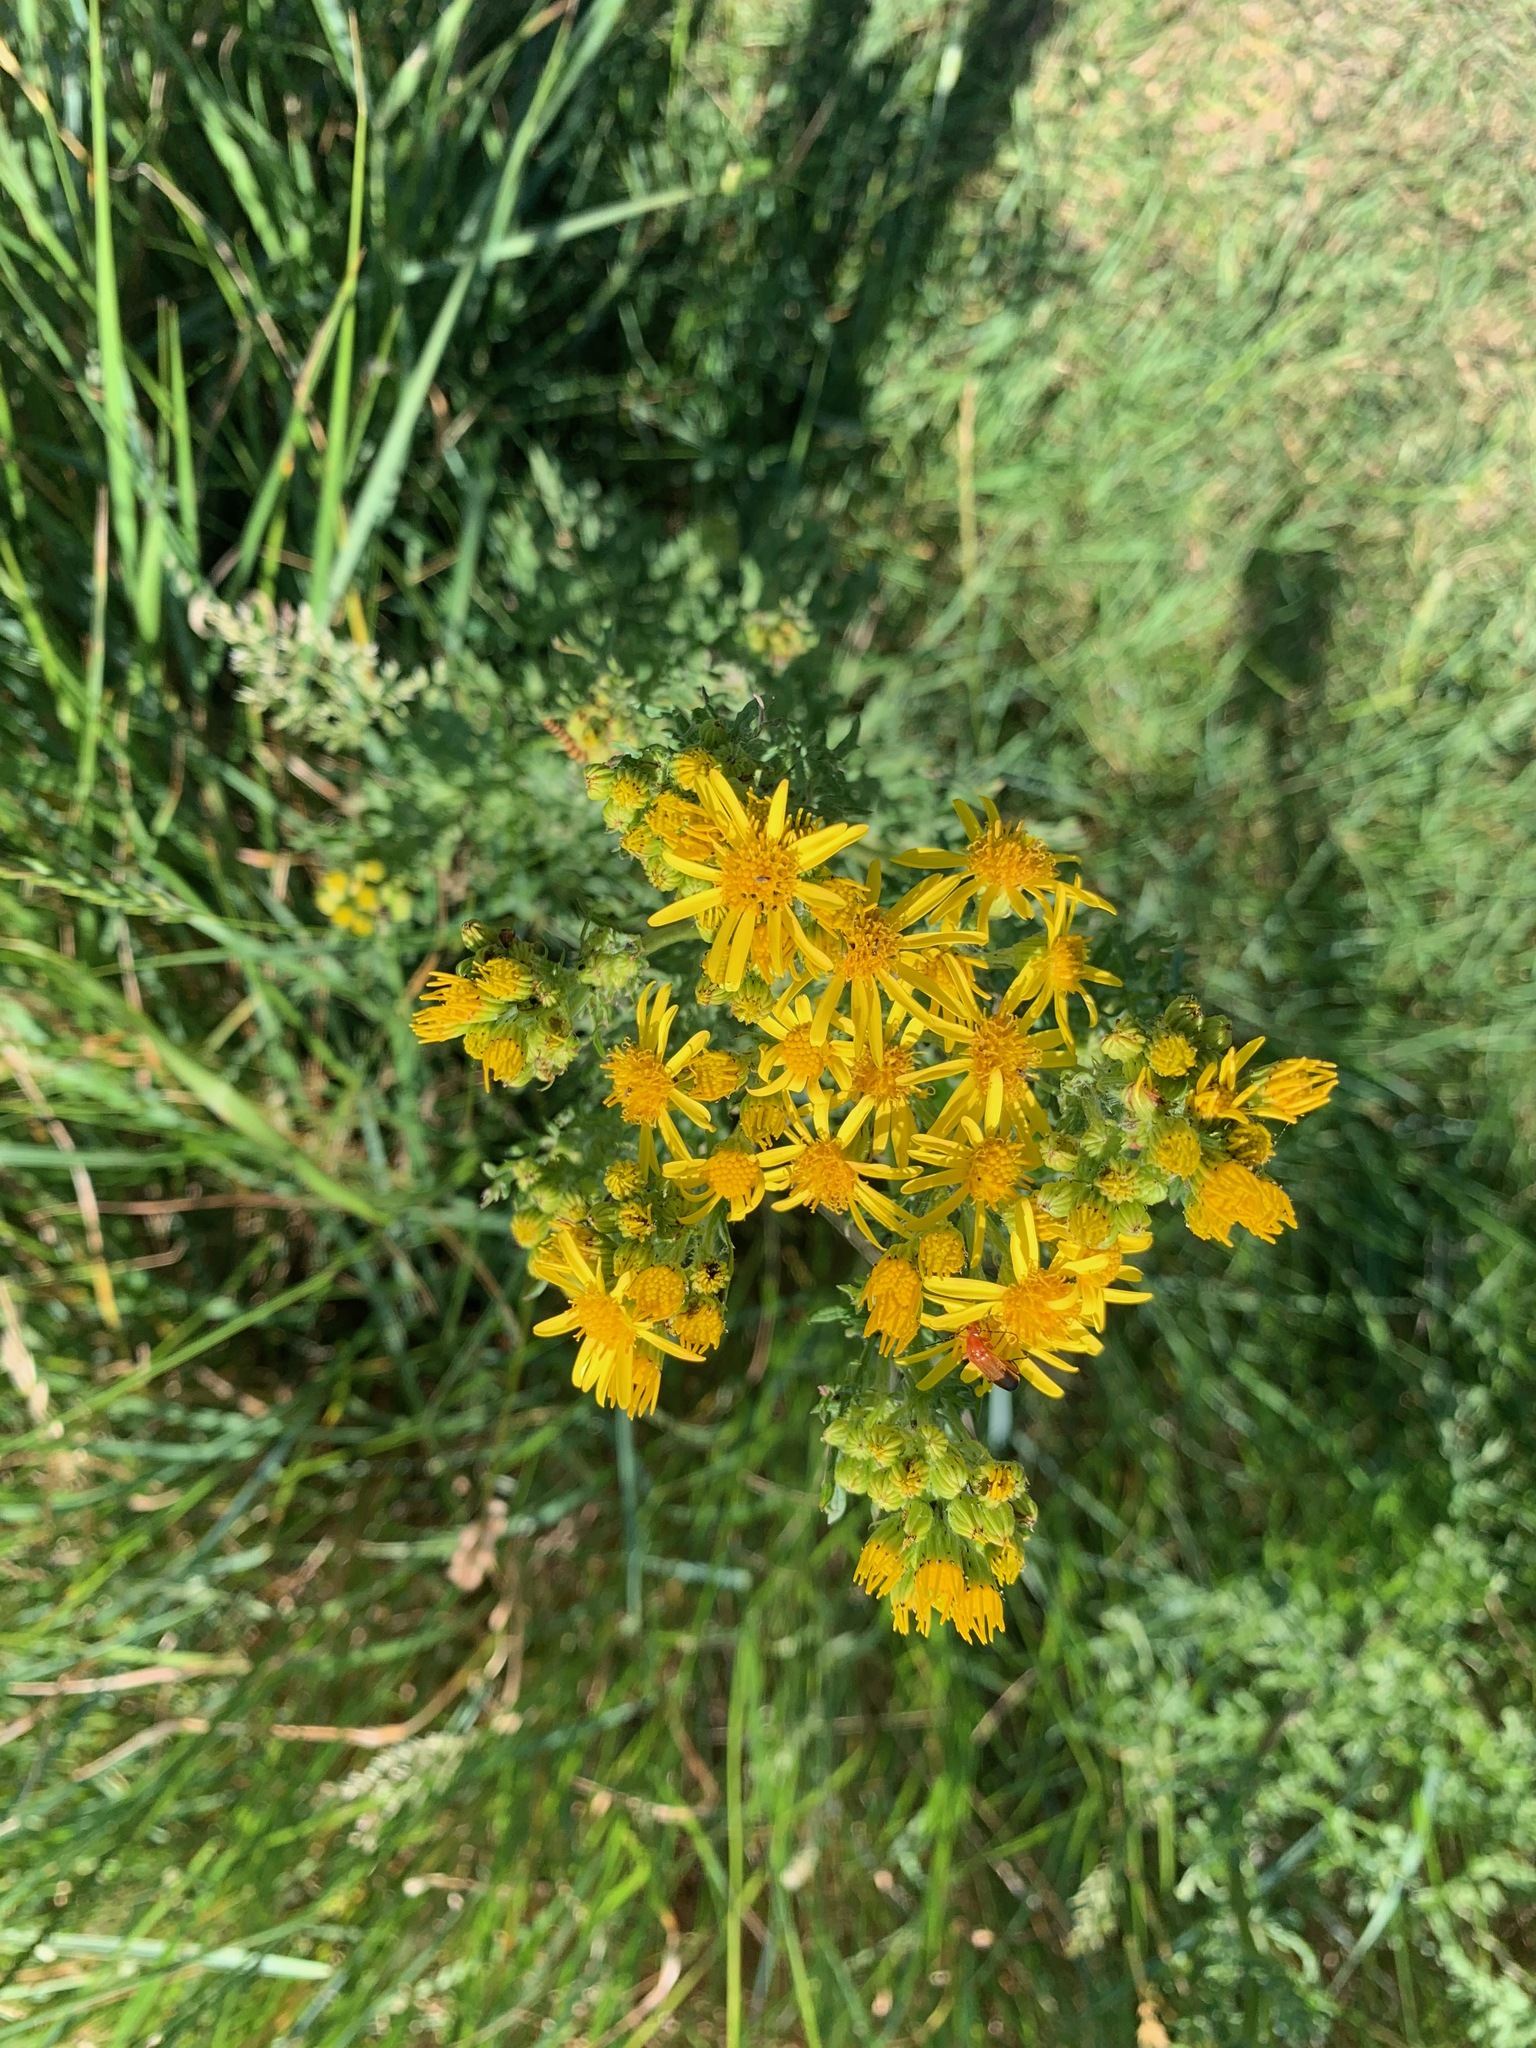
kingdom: Plantae
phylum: Tracheophyta
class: Magnoliopsida
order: Asterales
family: Asteraceae
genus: Jacobaea
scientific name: Jacobaea vulgaris
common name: Stinking willie
